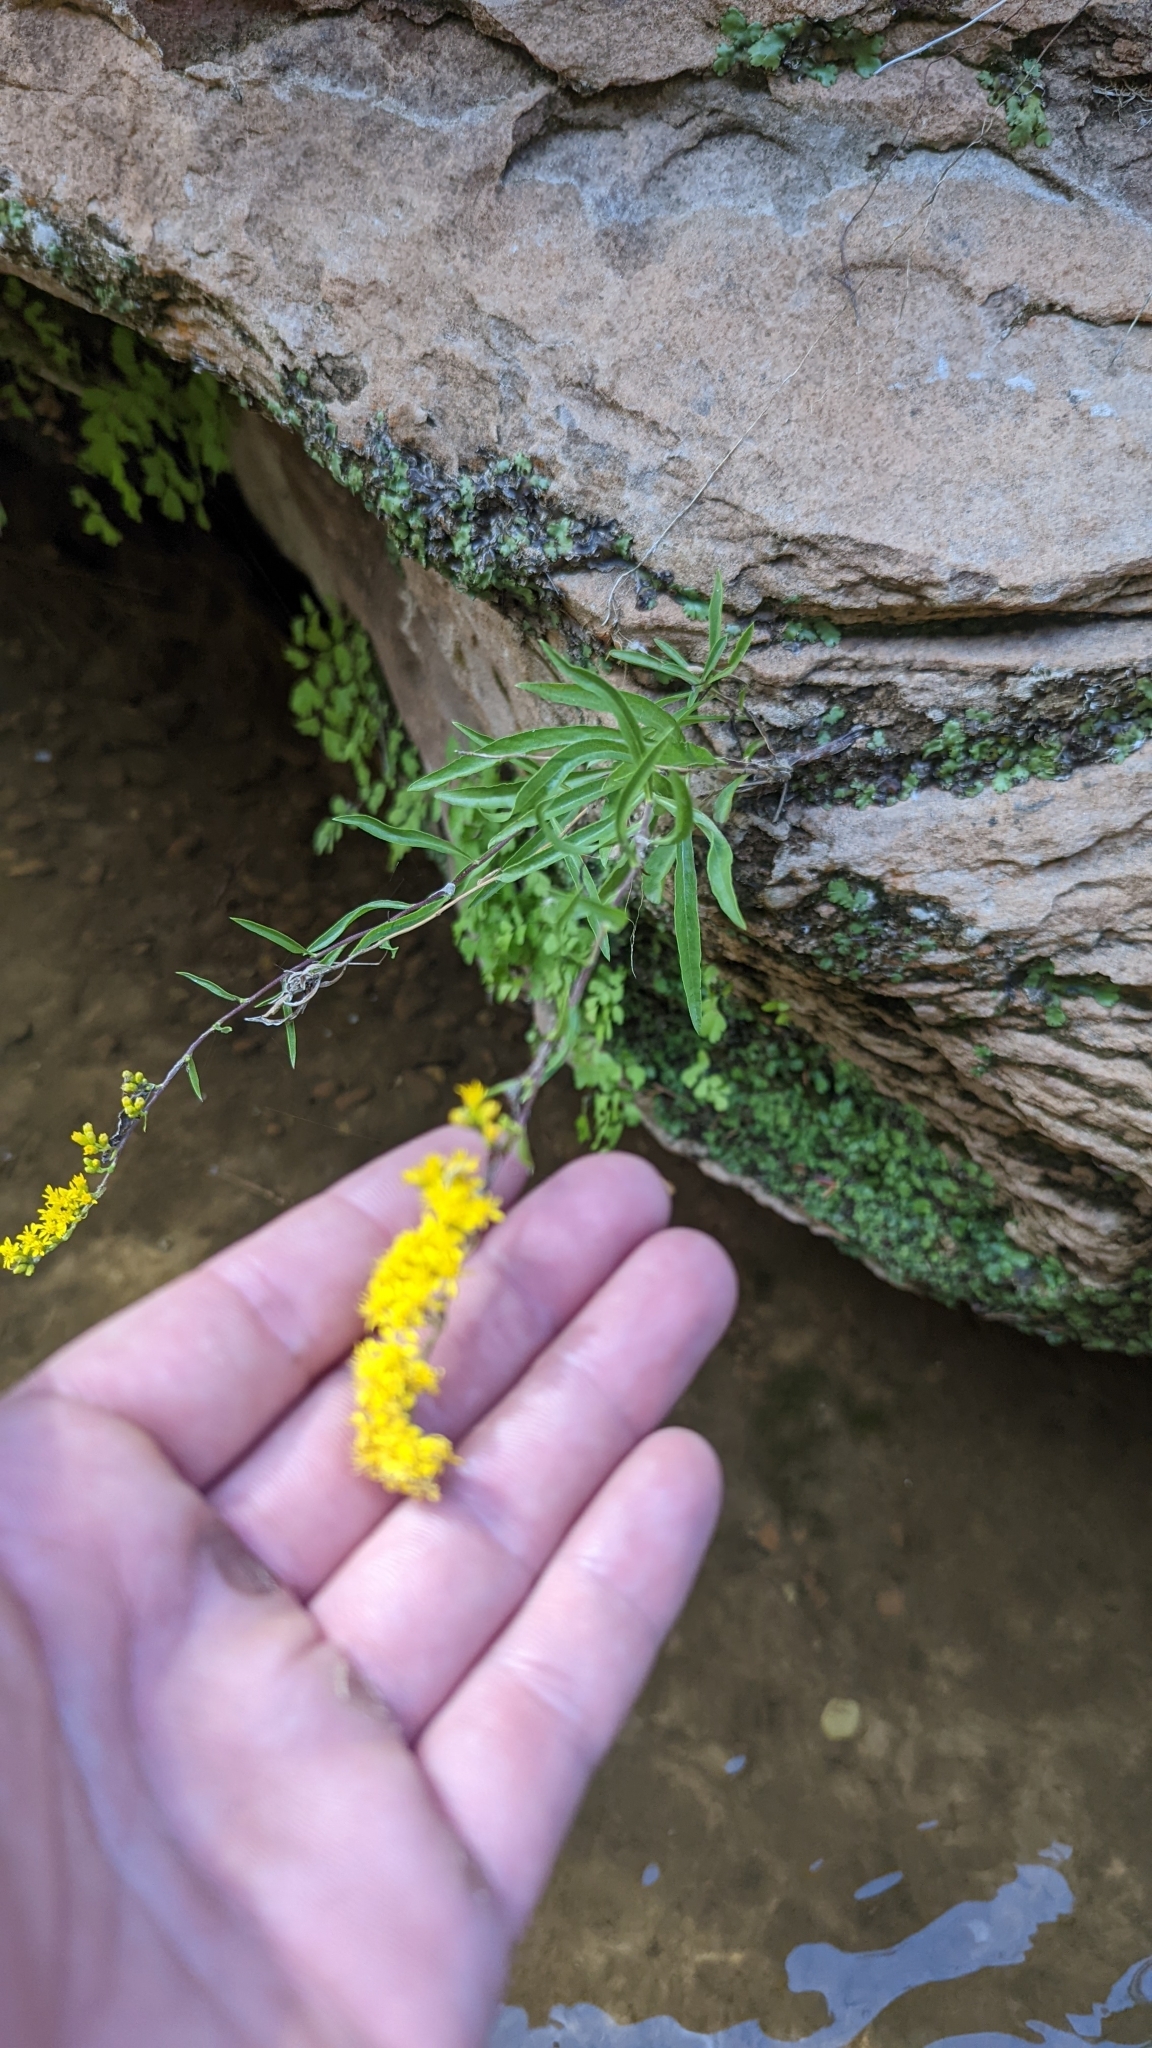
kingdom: Plantae
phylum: Tracheophyta
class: Magnoliopsida
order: Asterales
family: Asteraceae
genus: Solidago
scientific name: Solidago velutina
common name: Three-nerve goldenrod
